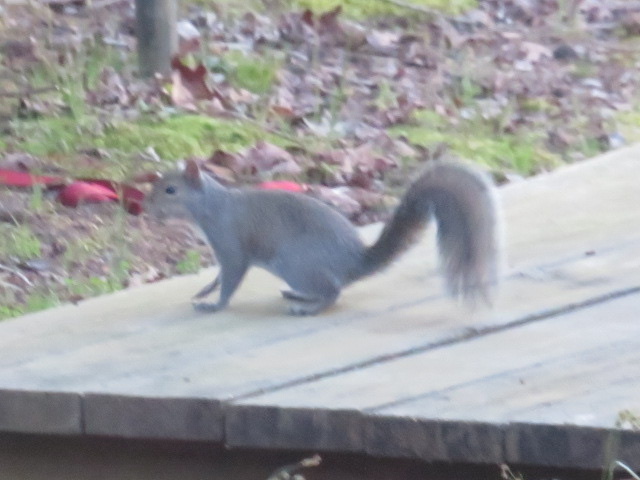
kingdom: Animalia
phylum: Chordata
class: Mammalia
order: Rodentia
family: Sciuridae
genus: Sciurus
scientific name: Sciurus carolinensis
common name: Eastern gray squirrel
